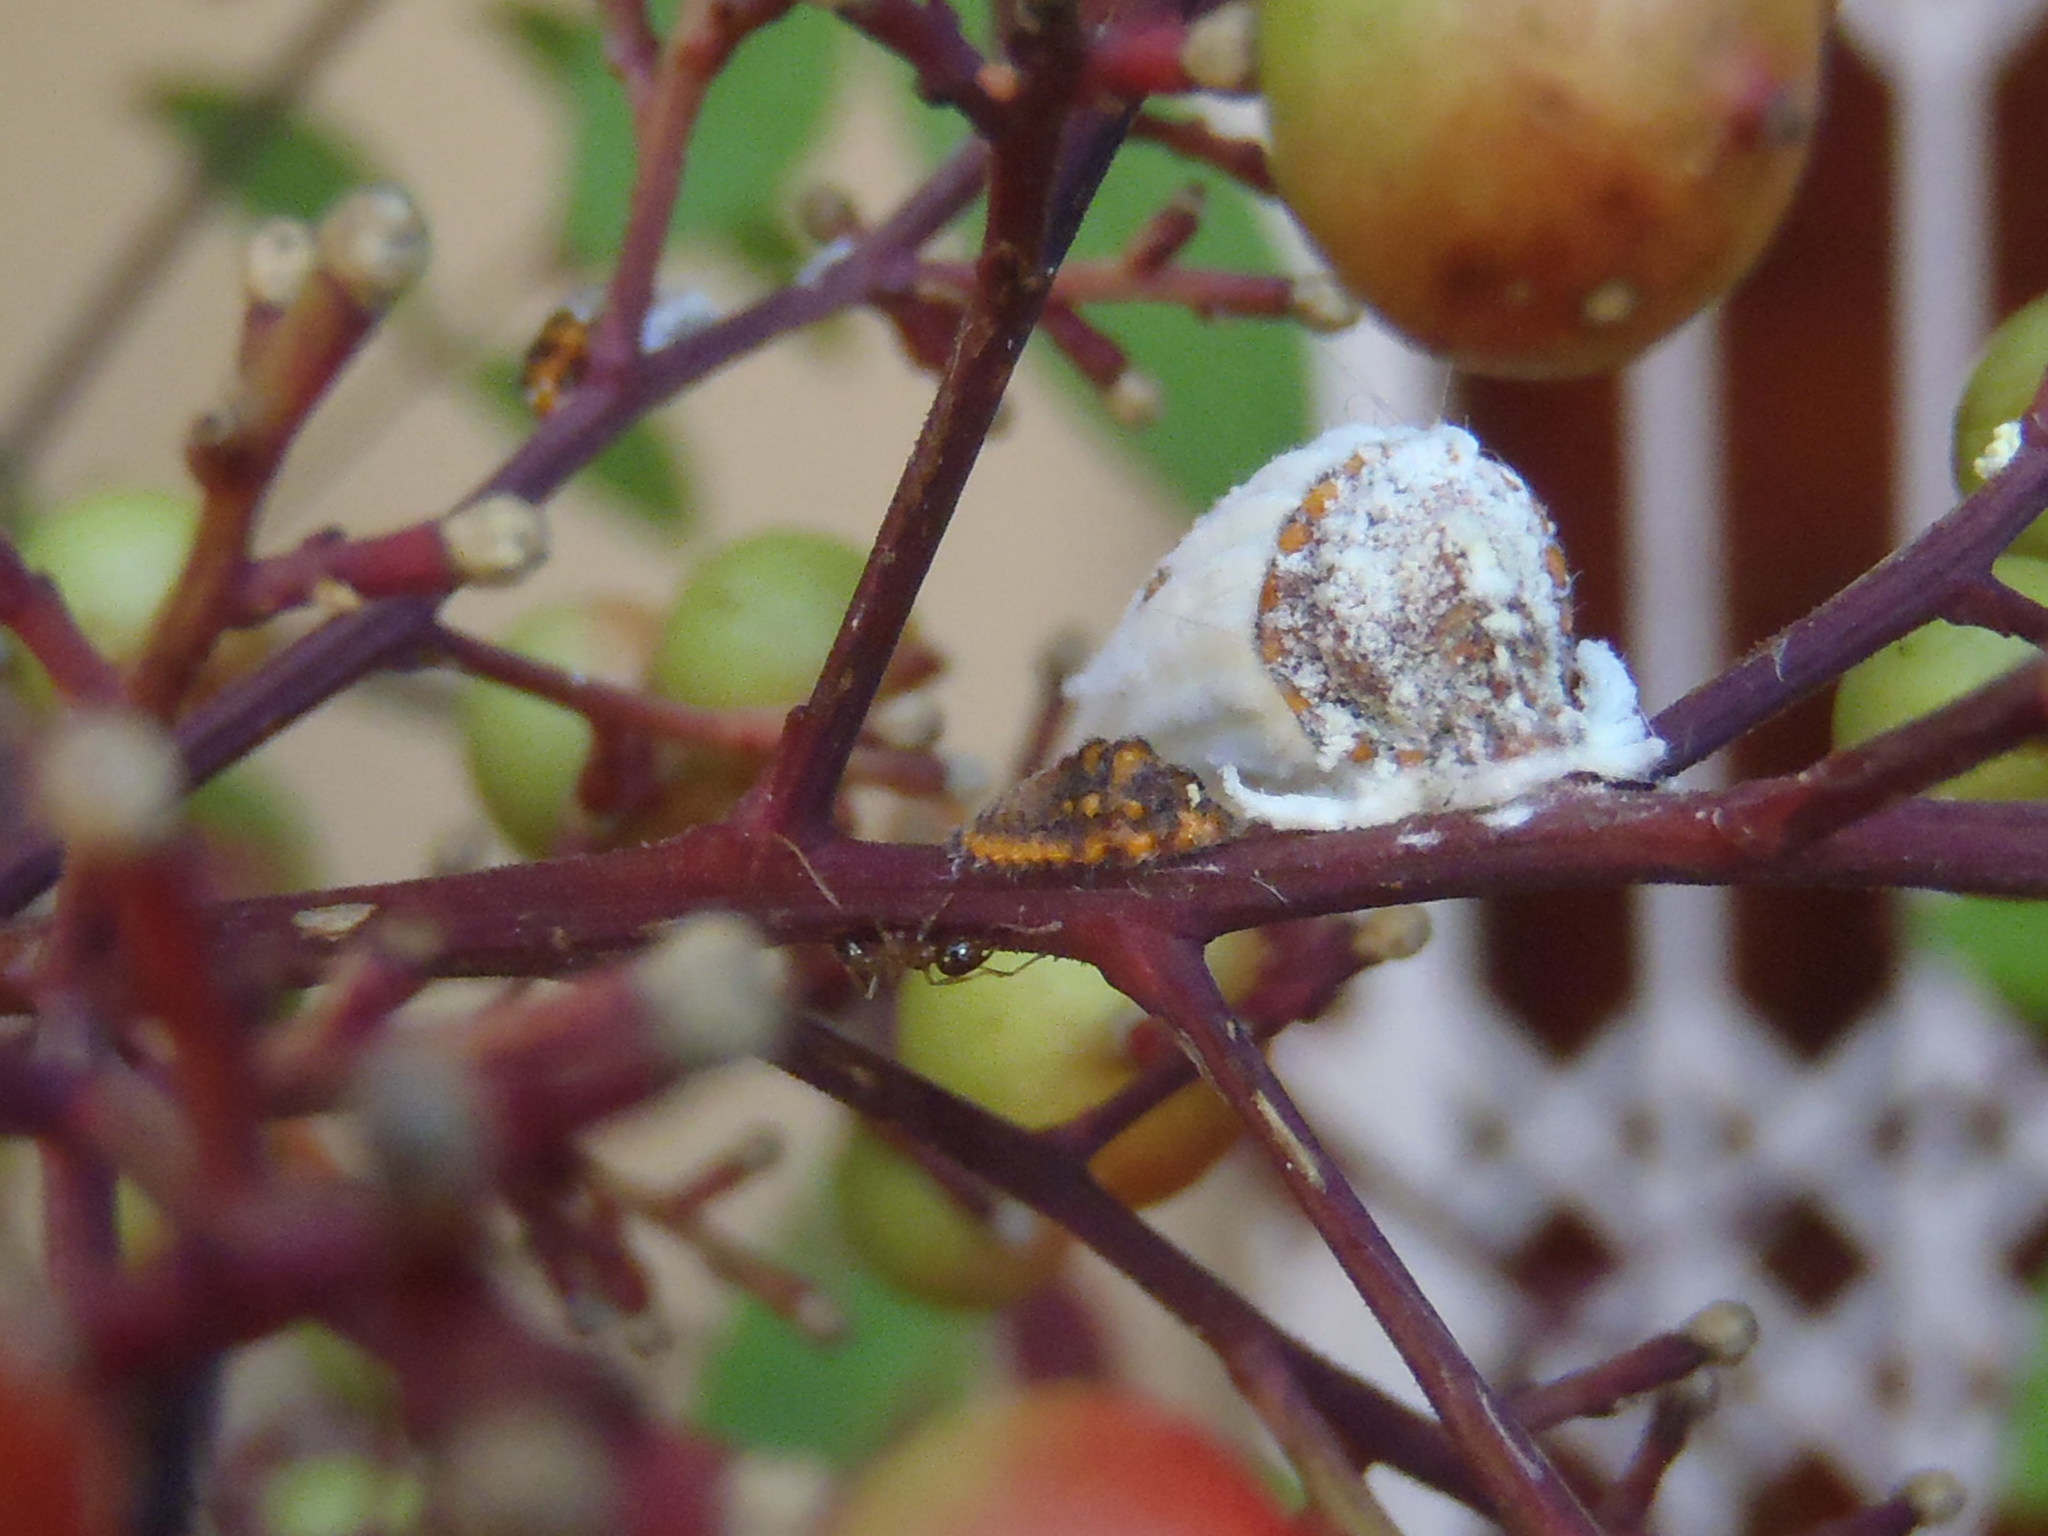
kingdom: Animalia
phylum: Arthropoda
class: Insecta
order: Hemiptera
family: Margarodidae
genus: Icerya
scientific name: Icerya purchasi
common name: Cottony cushion scale
